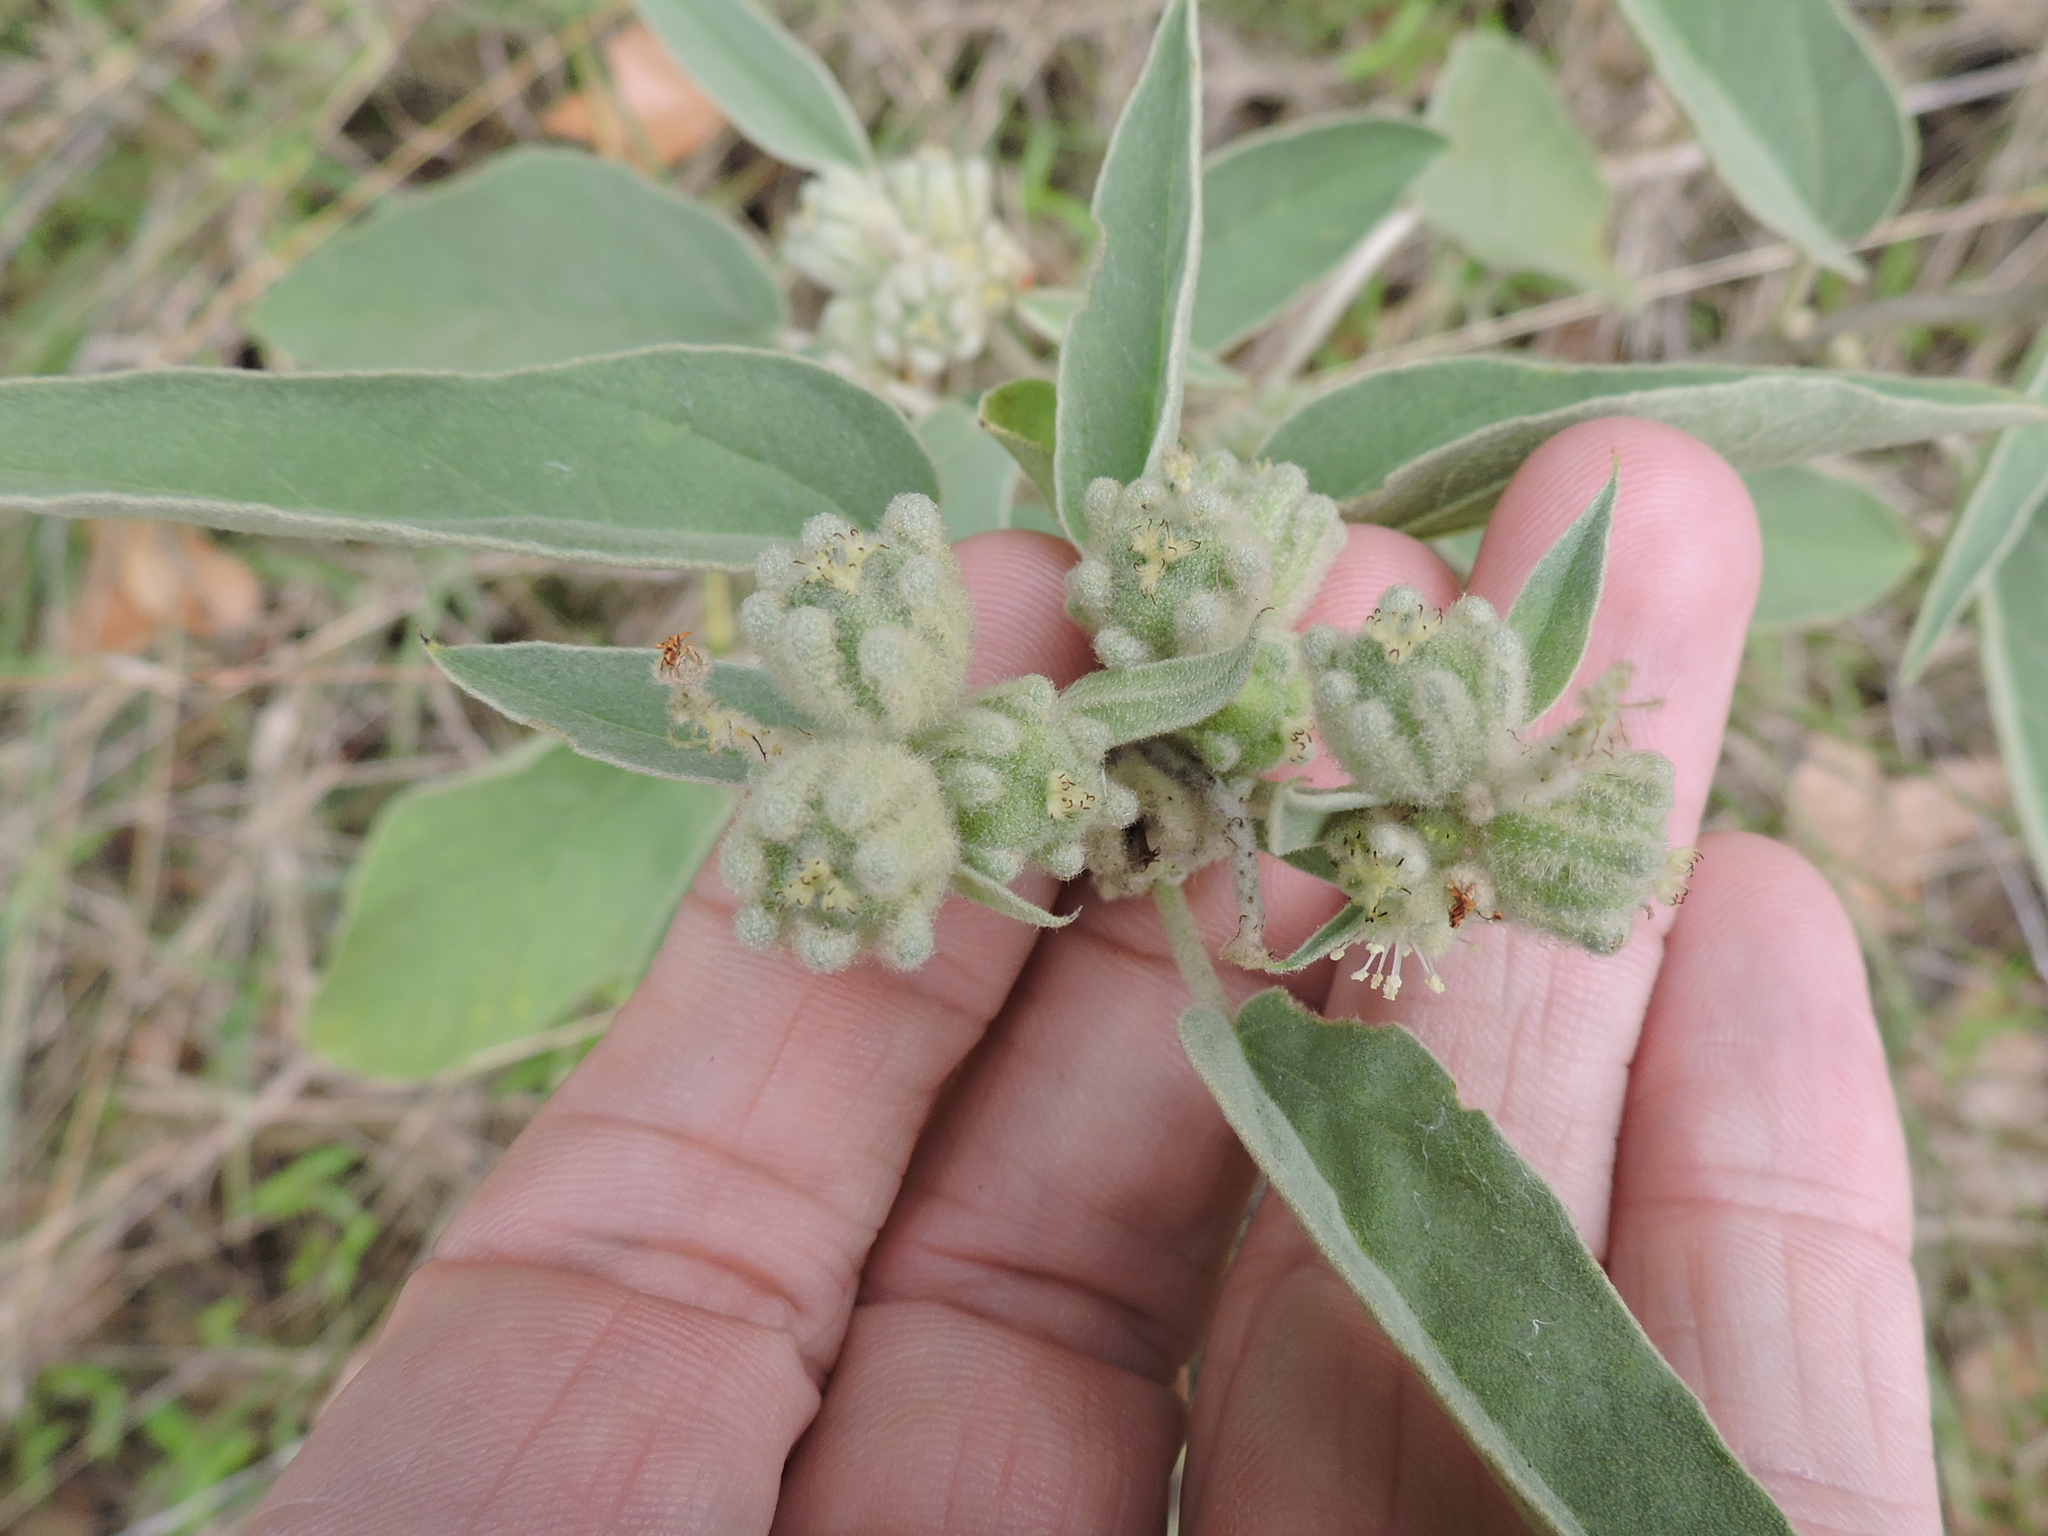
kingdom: Plantae
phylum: Tracheophyta
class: Magnoliopsida
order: Malpighiales
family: Euphorbiaceae
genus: Croton
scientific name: Croton lindheimeri
